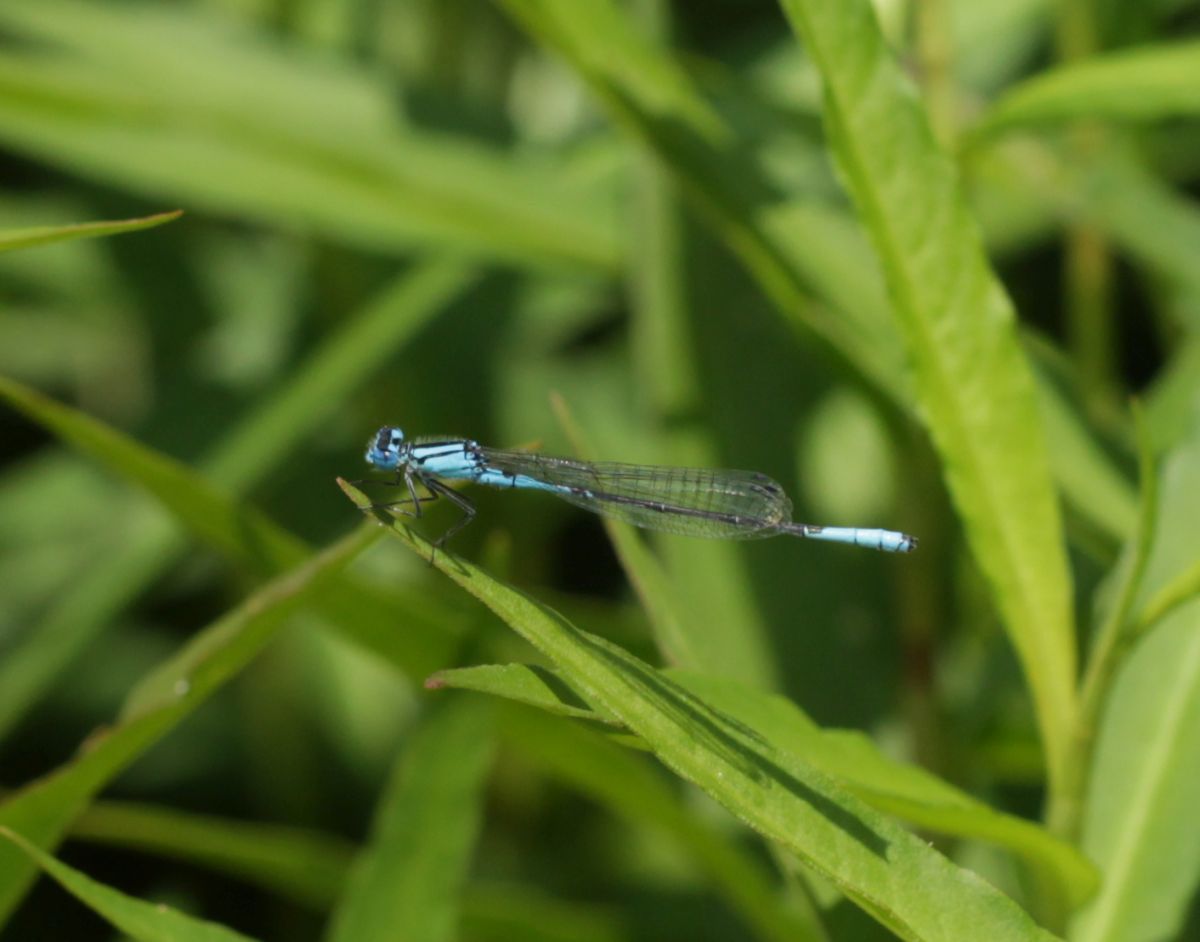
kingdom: Animalia
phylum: Arthropoda
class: Insecta
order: Odonata
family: Coenagrionidae
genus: Enallagma
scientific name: Enallagma aspersum
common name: Azure bluet
